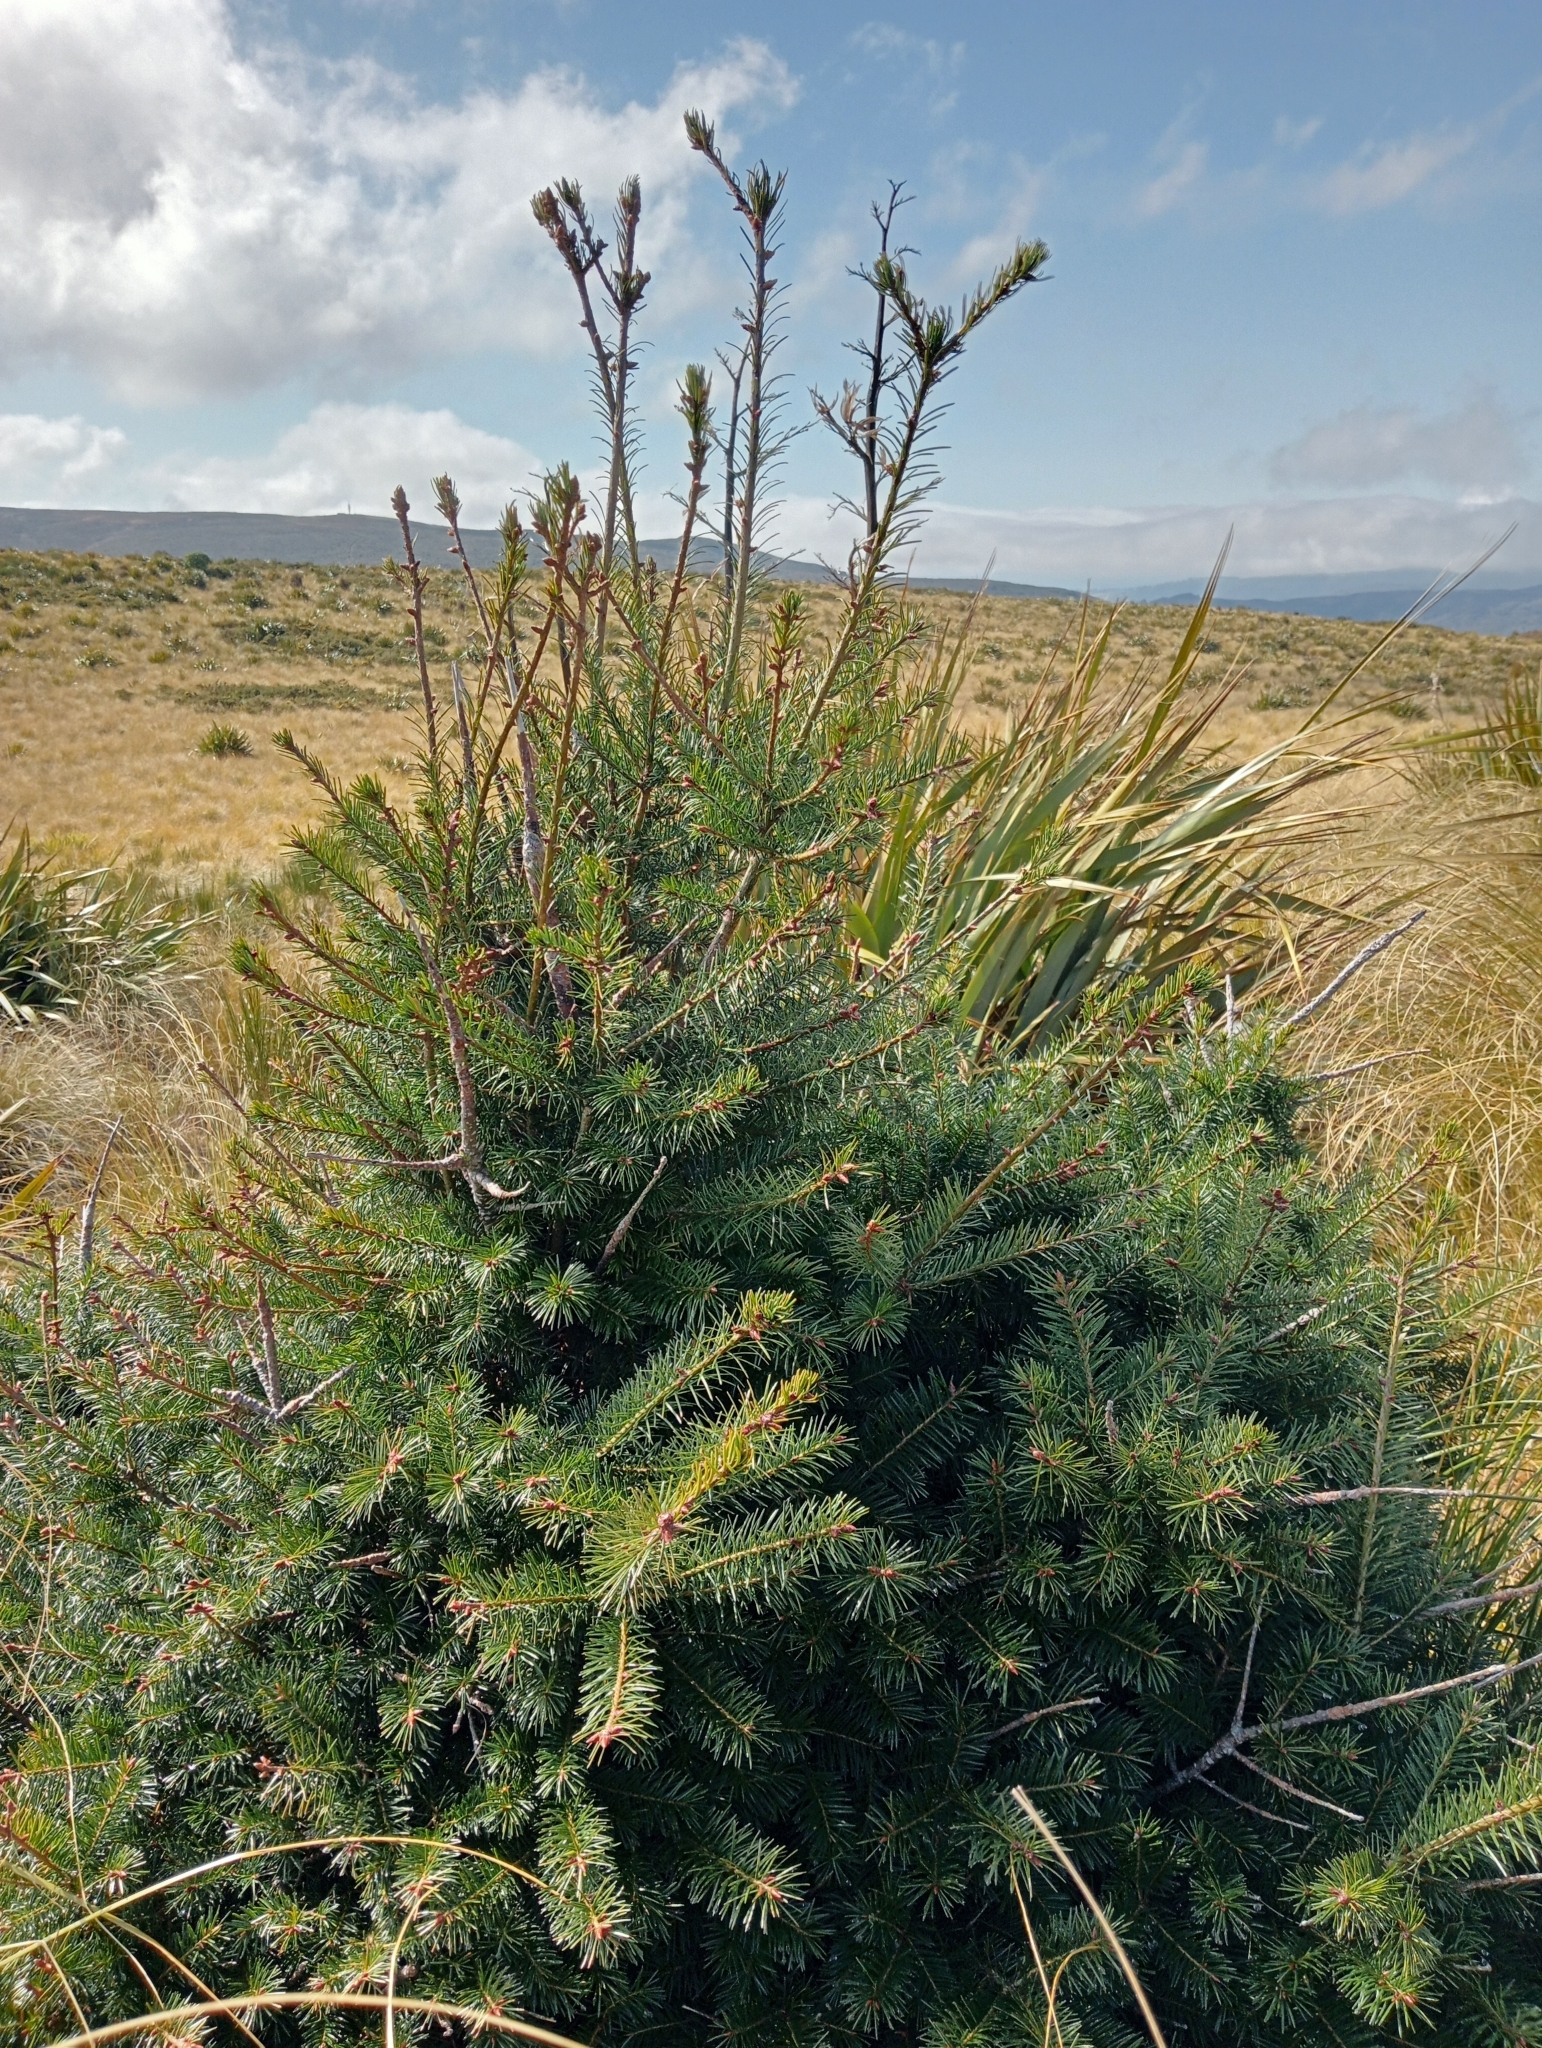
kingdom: Plantae
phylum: Tracheophyta
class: Pinopsida
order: Pinales
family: Pinaceae
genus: Pseudotsuga
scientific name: Pseudotsuga menziesii
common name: Douglas fir
